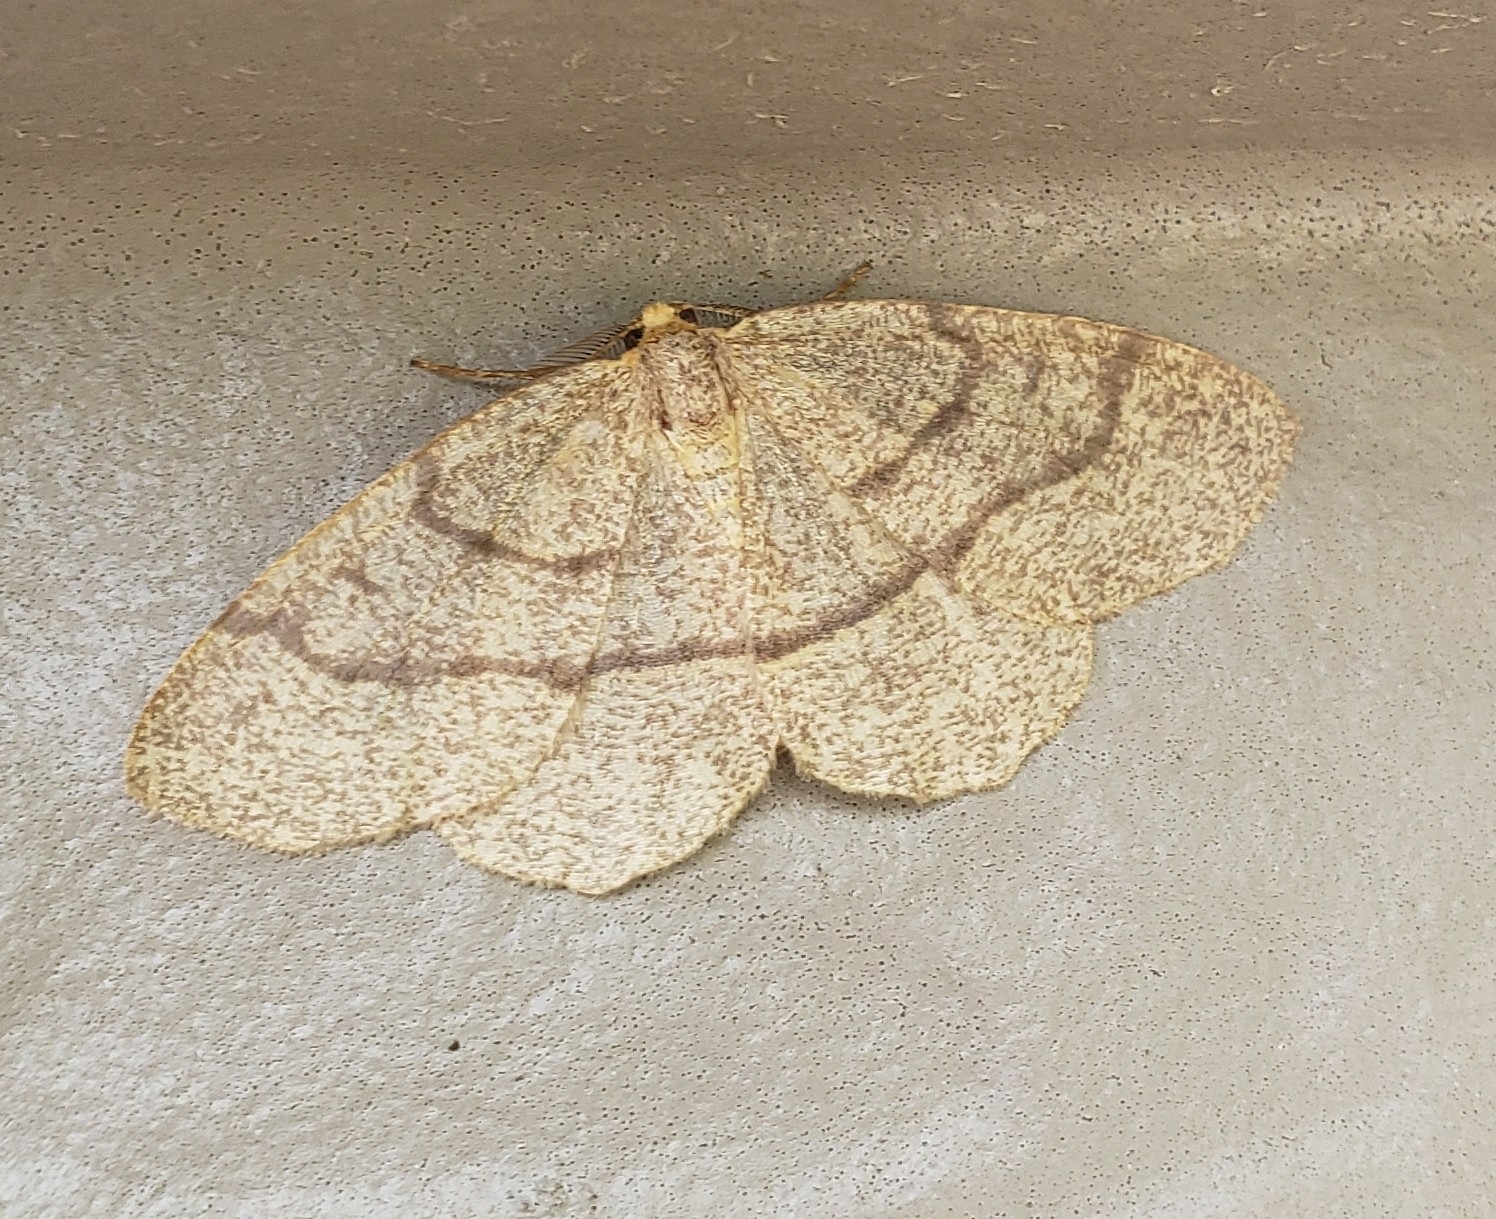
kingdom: Animalia
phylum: Arthropoda
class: Insecta
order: Lepidoptera
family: Geometridae
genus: Lambdina
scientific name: Lambdina fervidaria
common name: Curve-lined looper moth
